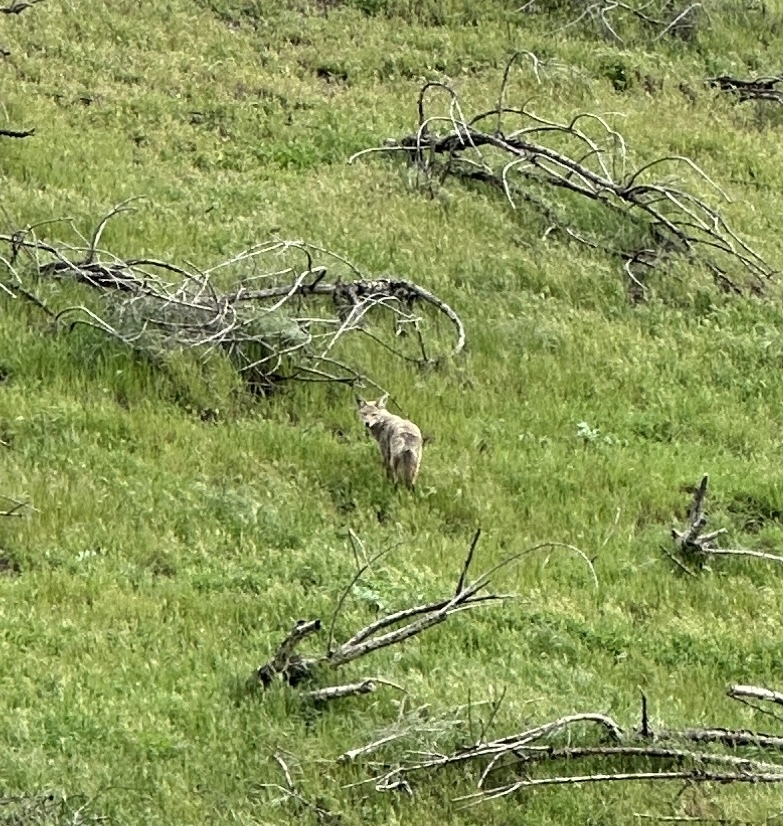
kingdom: Animalia
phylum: Chordata
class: Mammalia
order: Carnivora
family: Canidae
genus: Canis
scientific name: Canis latrans
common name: Coyote
